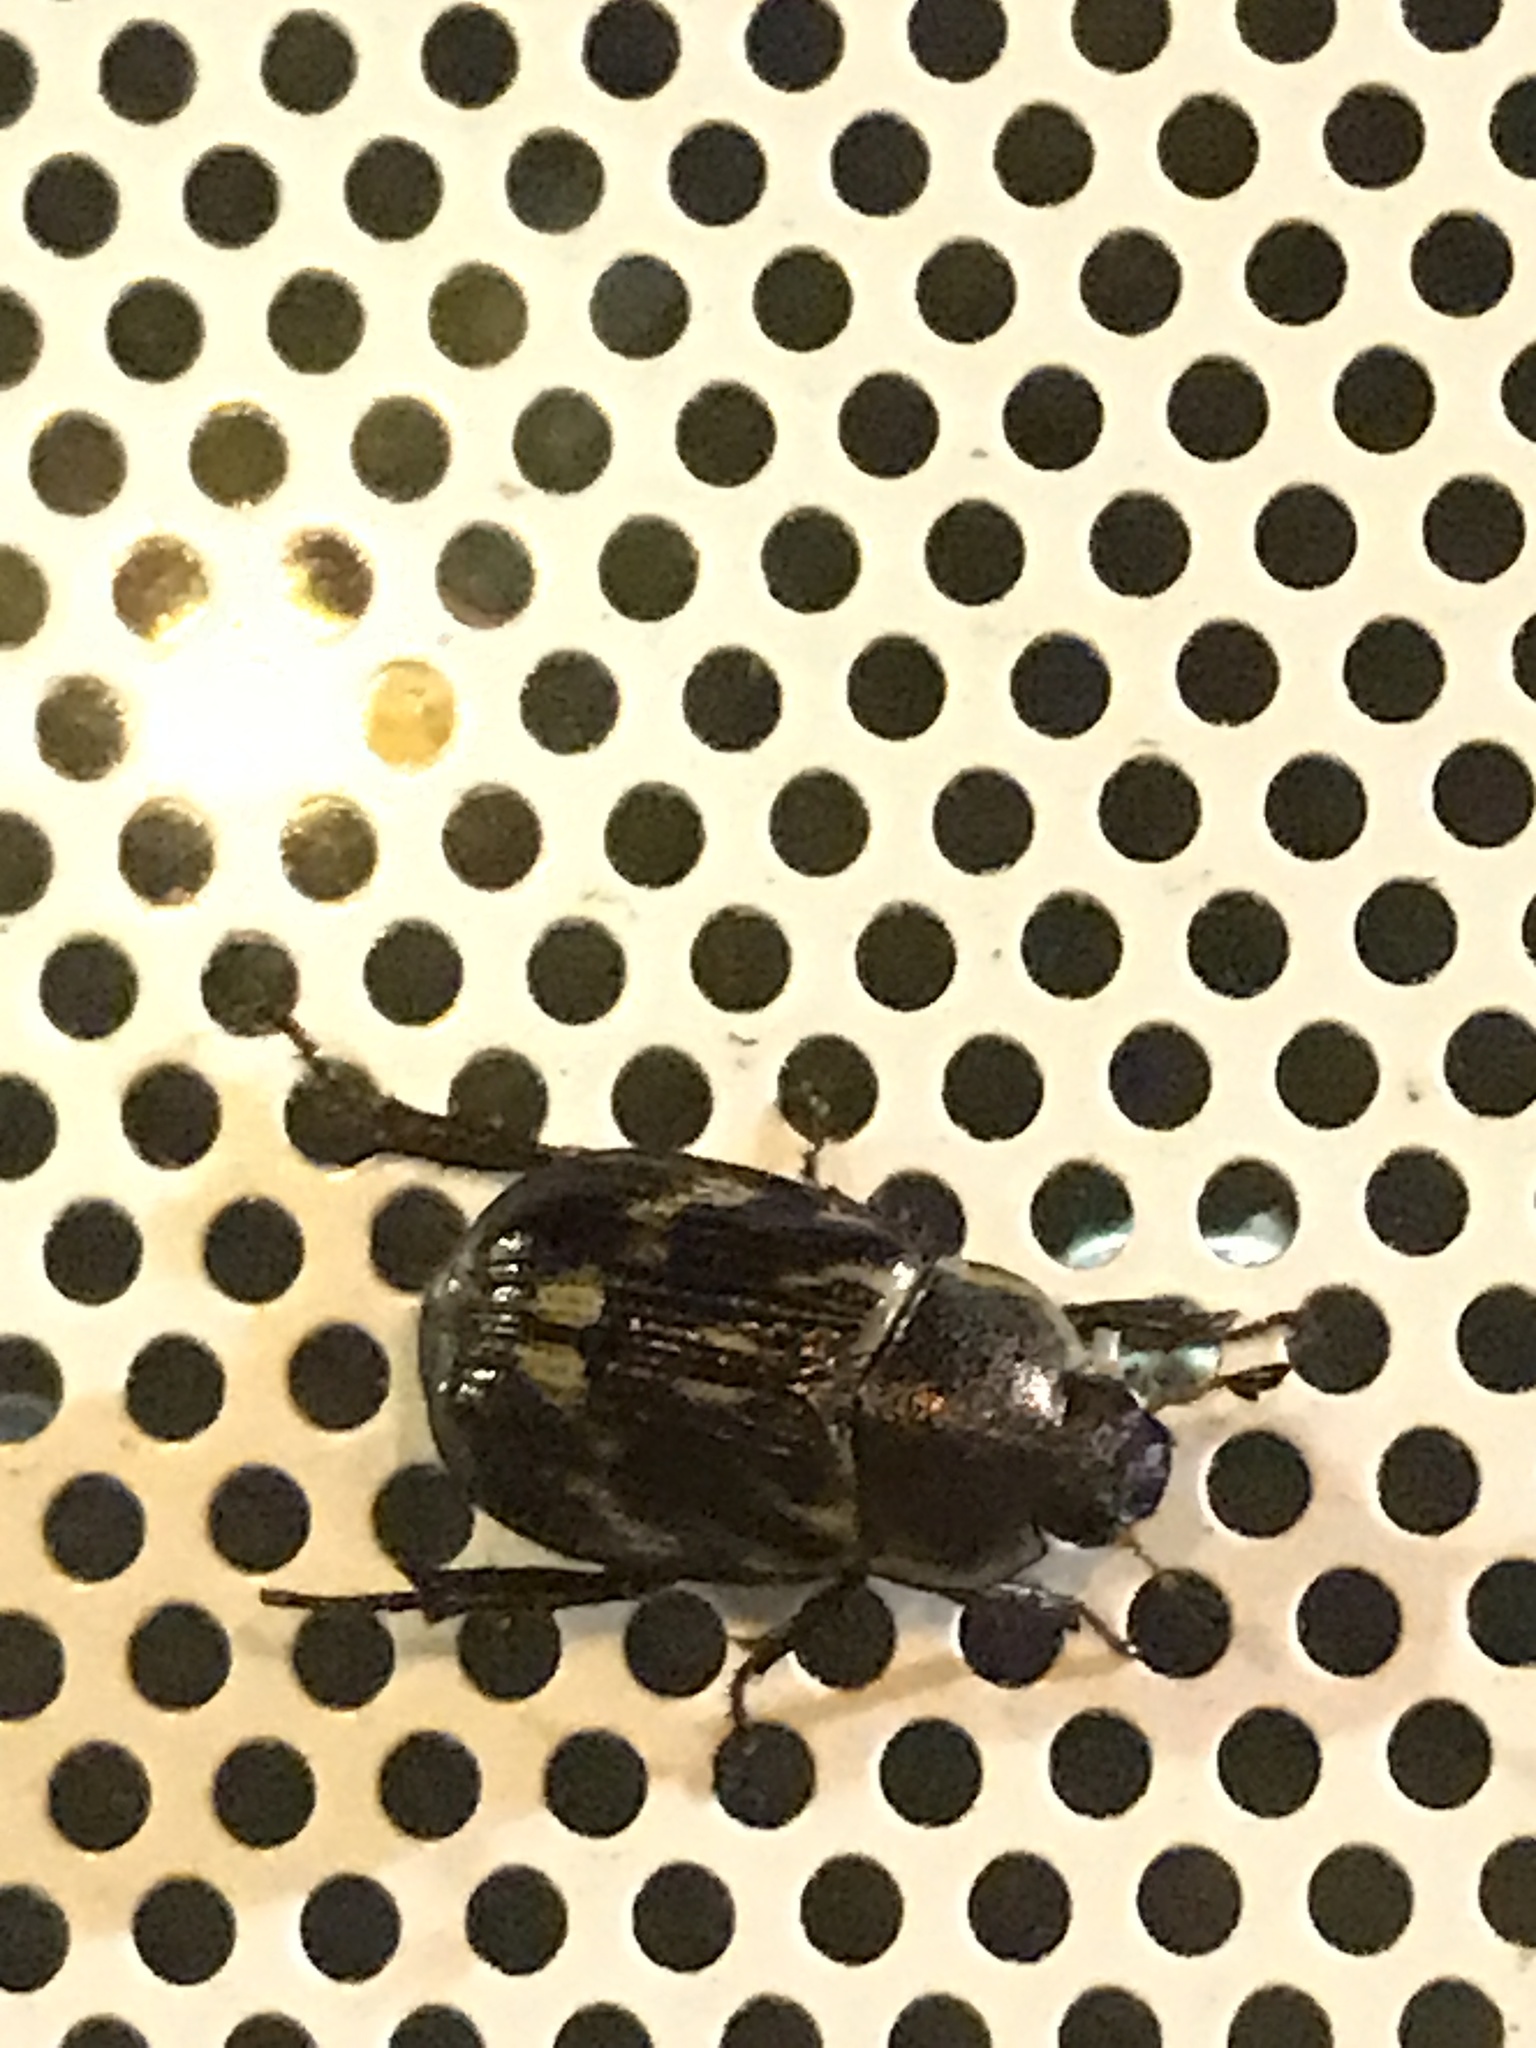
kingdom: Animalia
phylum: Arthropoda
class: Insecta
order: Coleoptera
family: Scarabaeidae
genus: Exomala
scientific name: Exomala orientalis
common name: Oriental beetle
